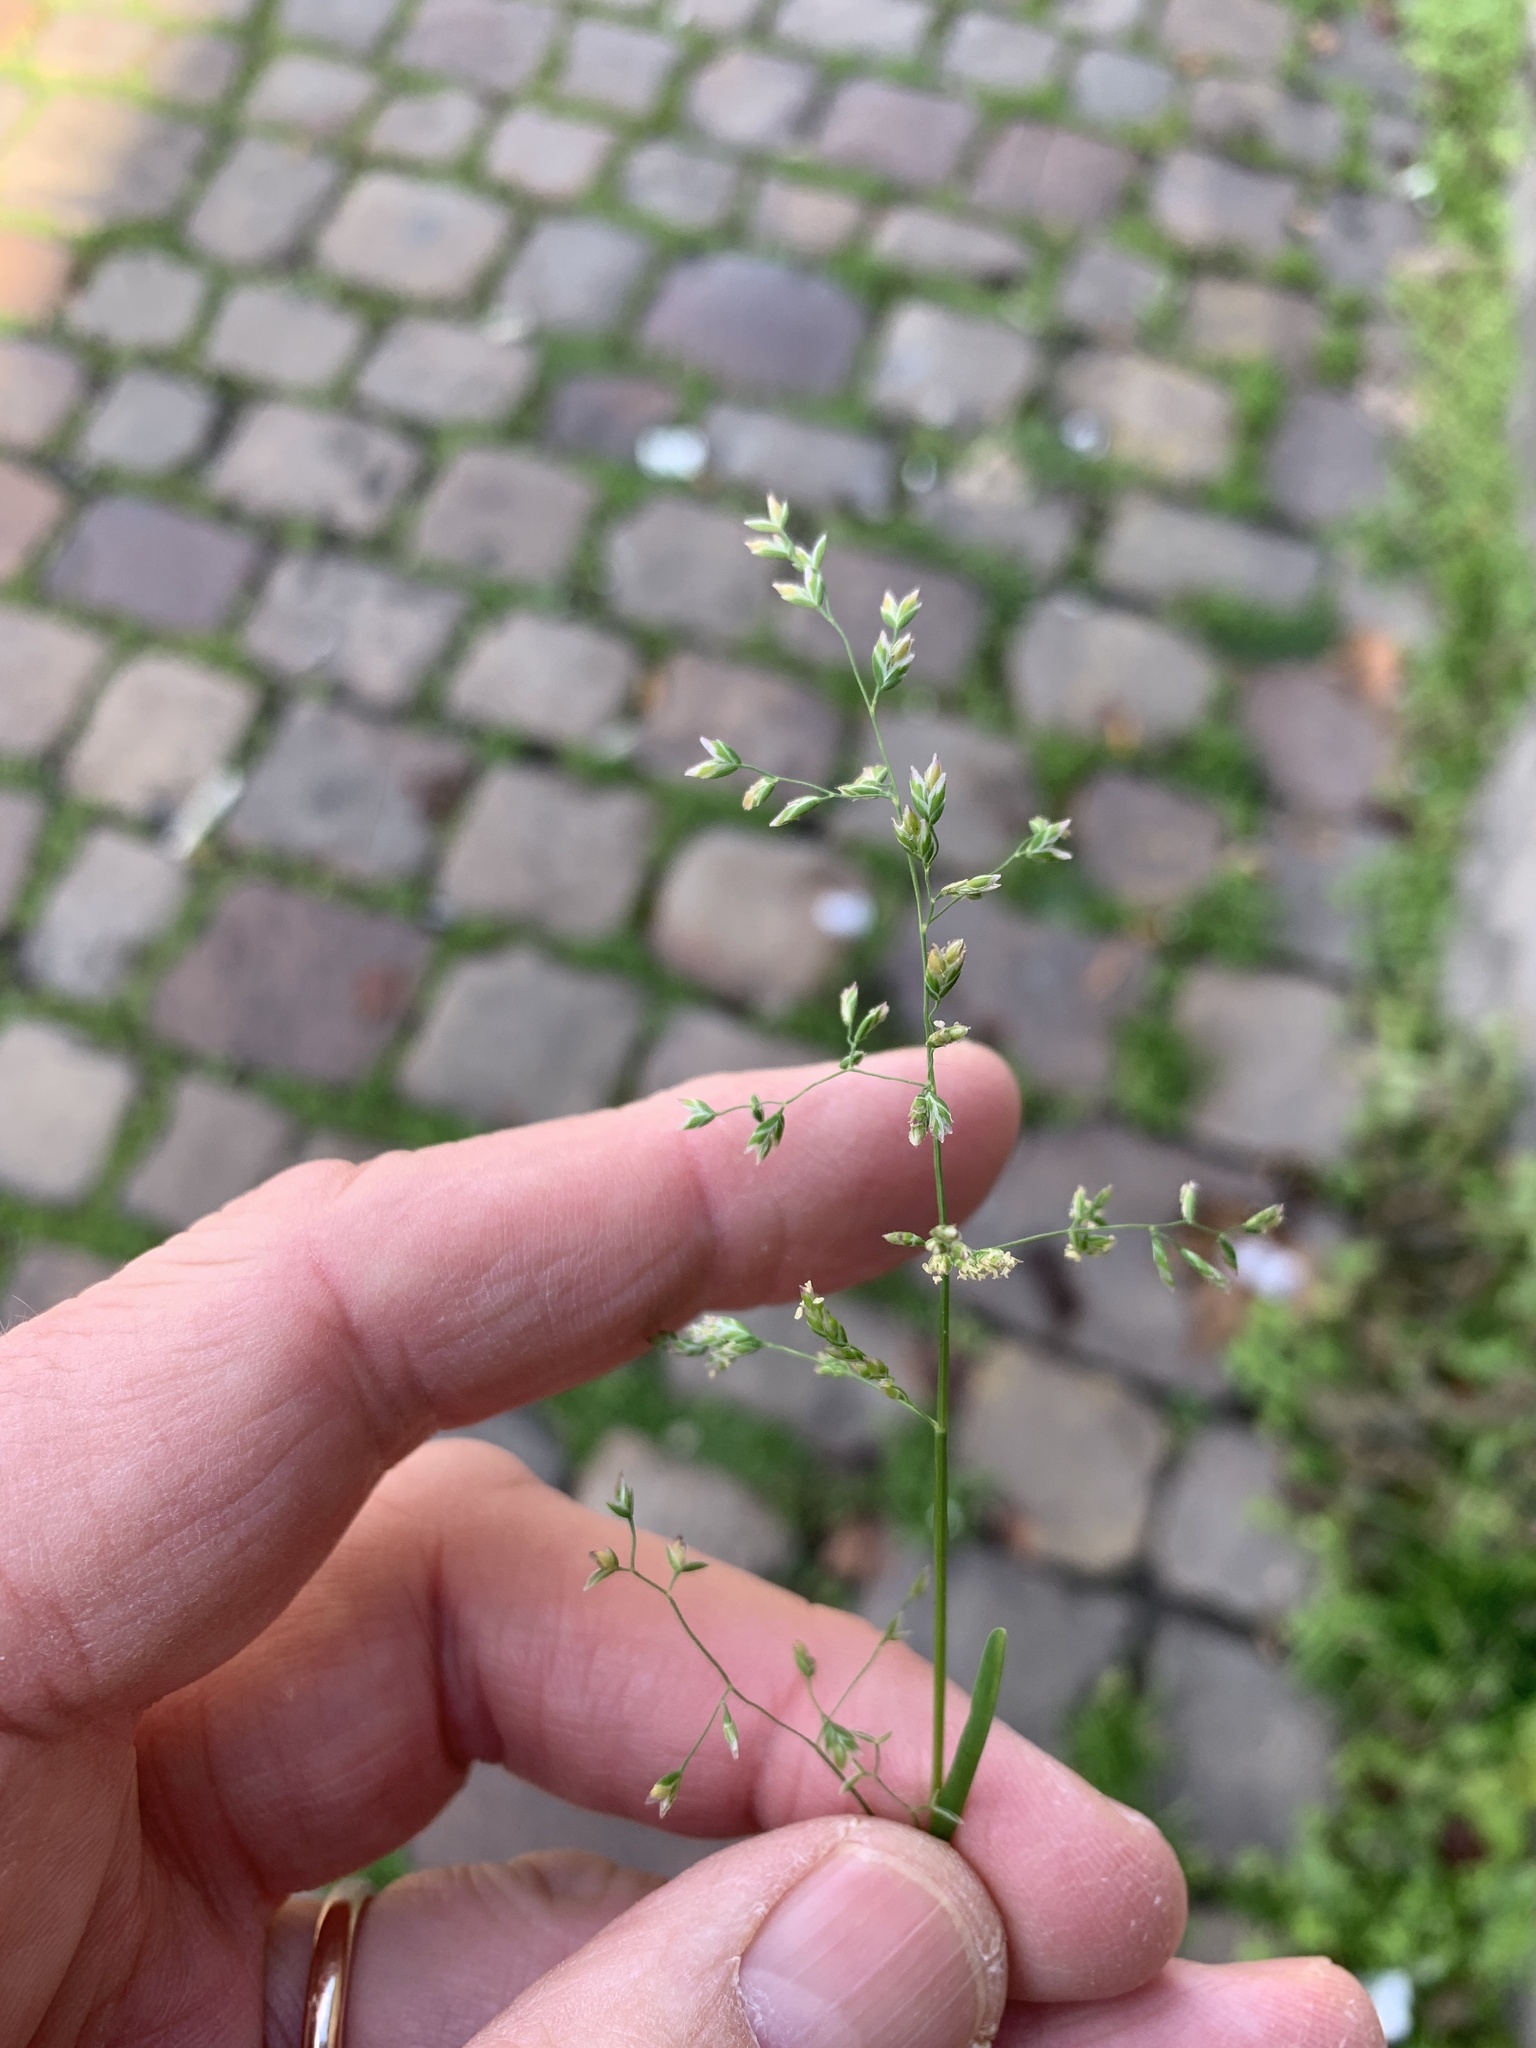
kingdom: Plantae
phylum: Tracheophyta
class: Liliopsida
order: Poales
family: Poaceae
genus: Poa
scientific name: Poa annua
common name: Annual bluegrass
